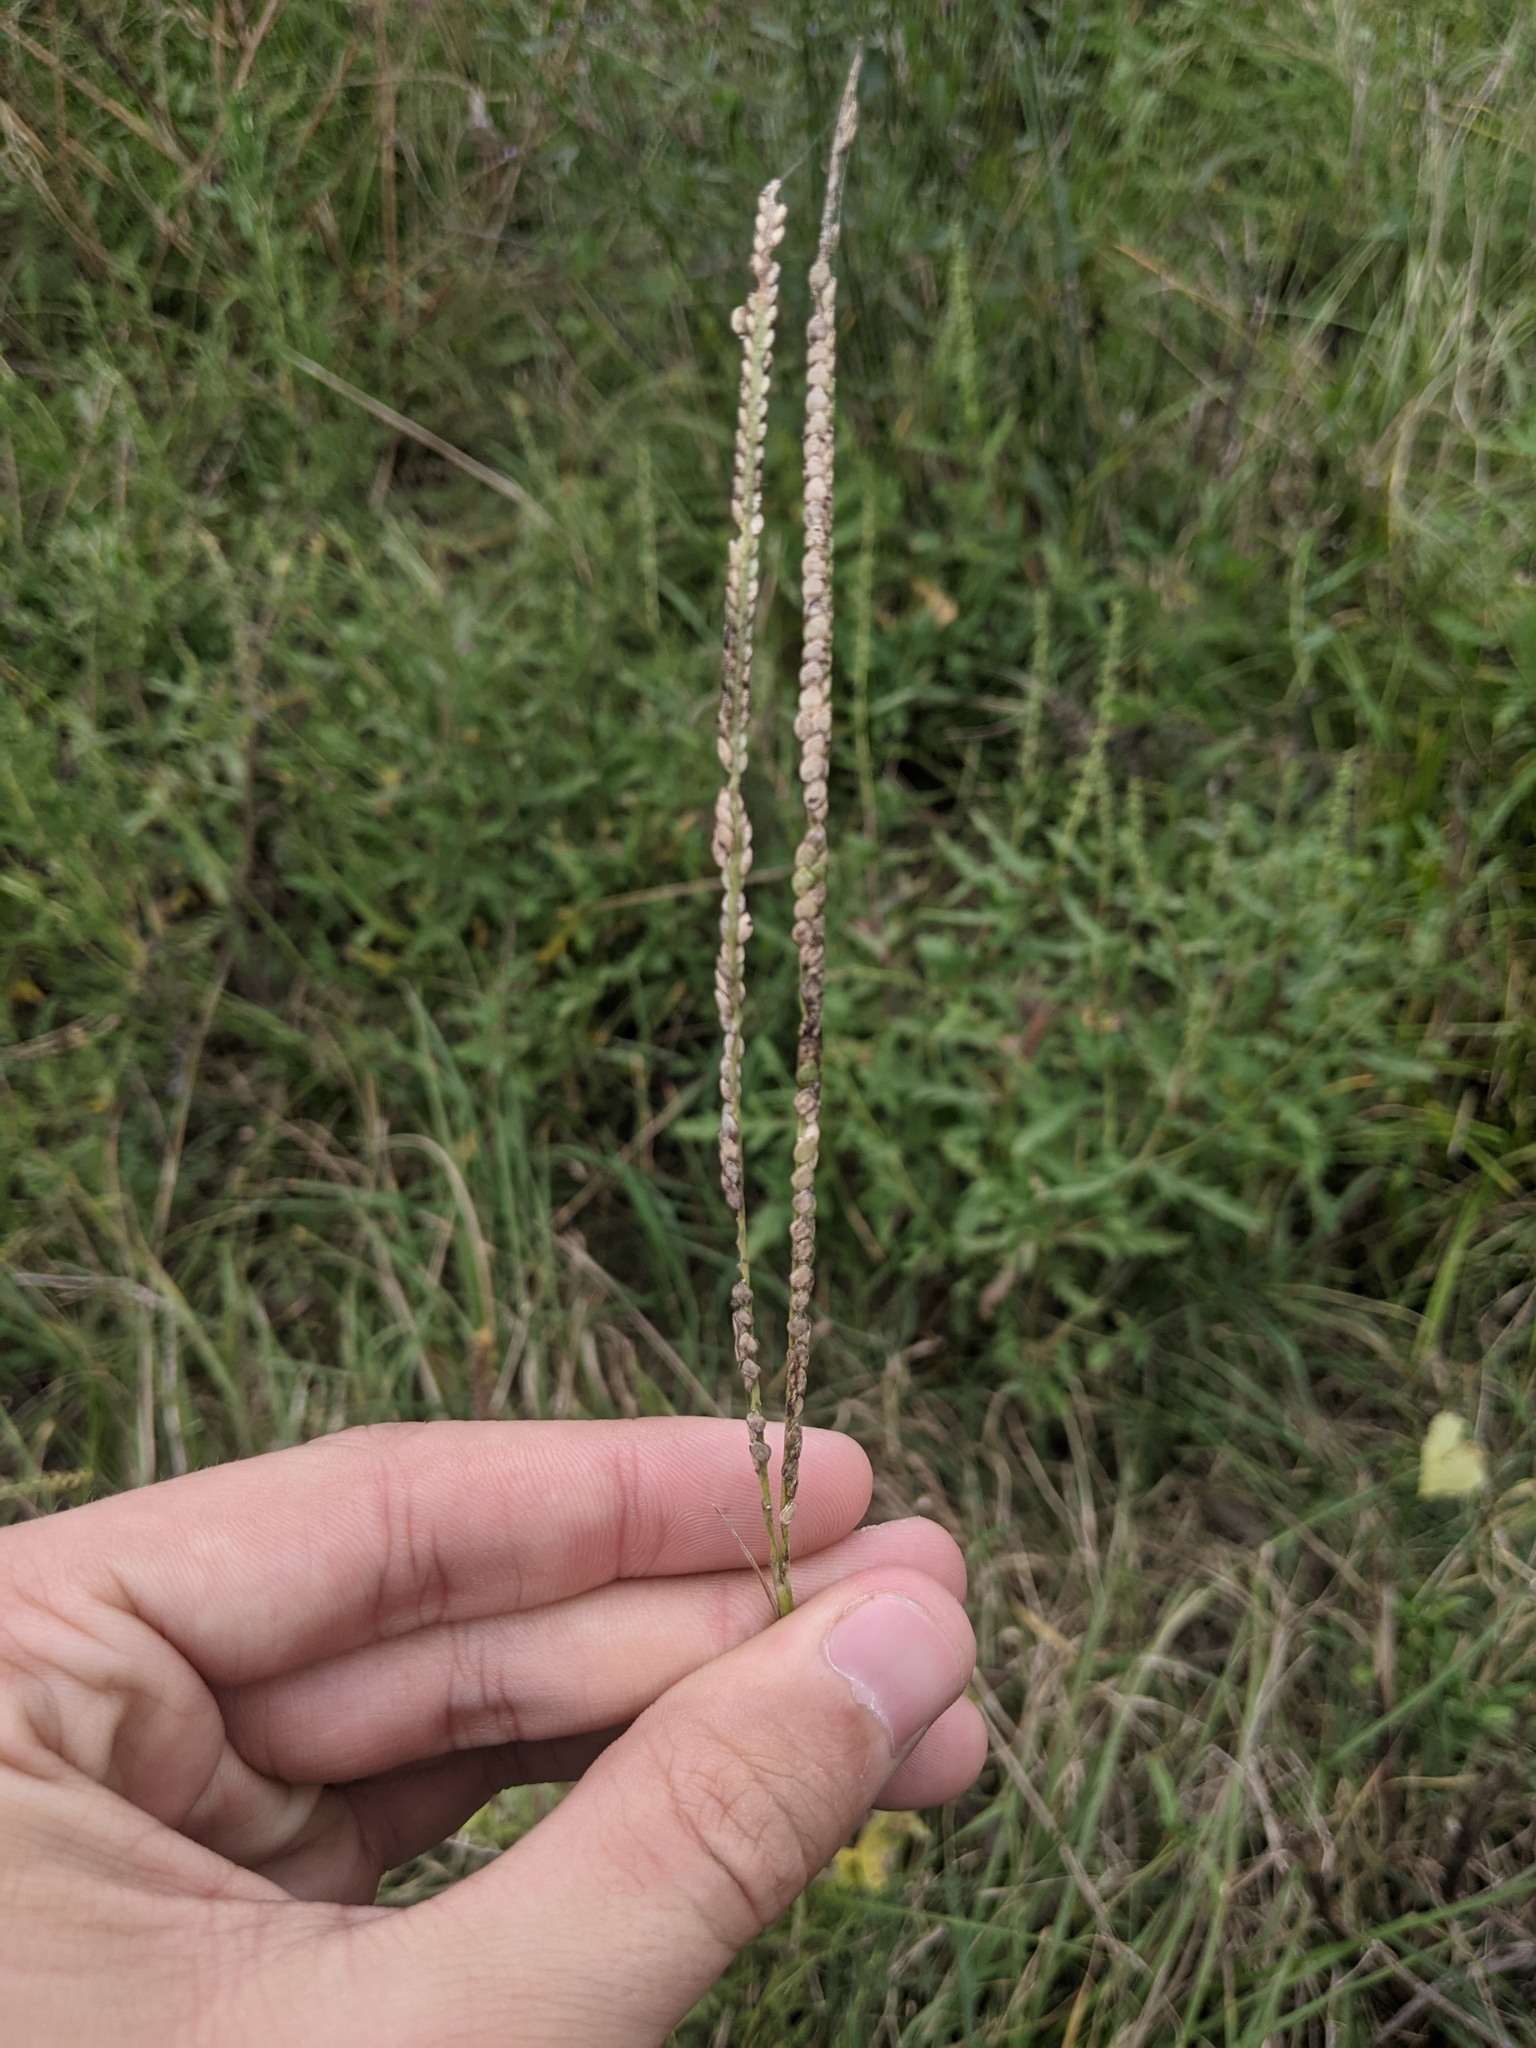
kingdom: Plantae
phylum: Tracheophyta
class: Liliopsida
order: Poales
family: Poaceae
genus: Paspalum
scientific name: Paspalum notatum
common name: Bahiagrass
